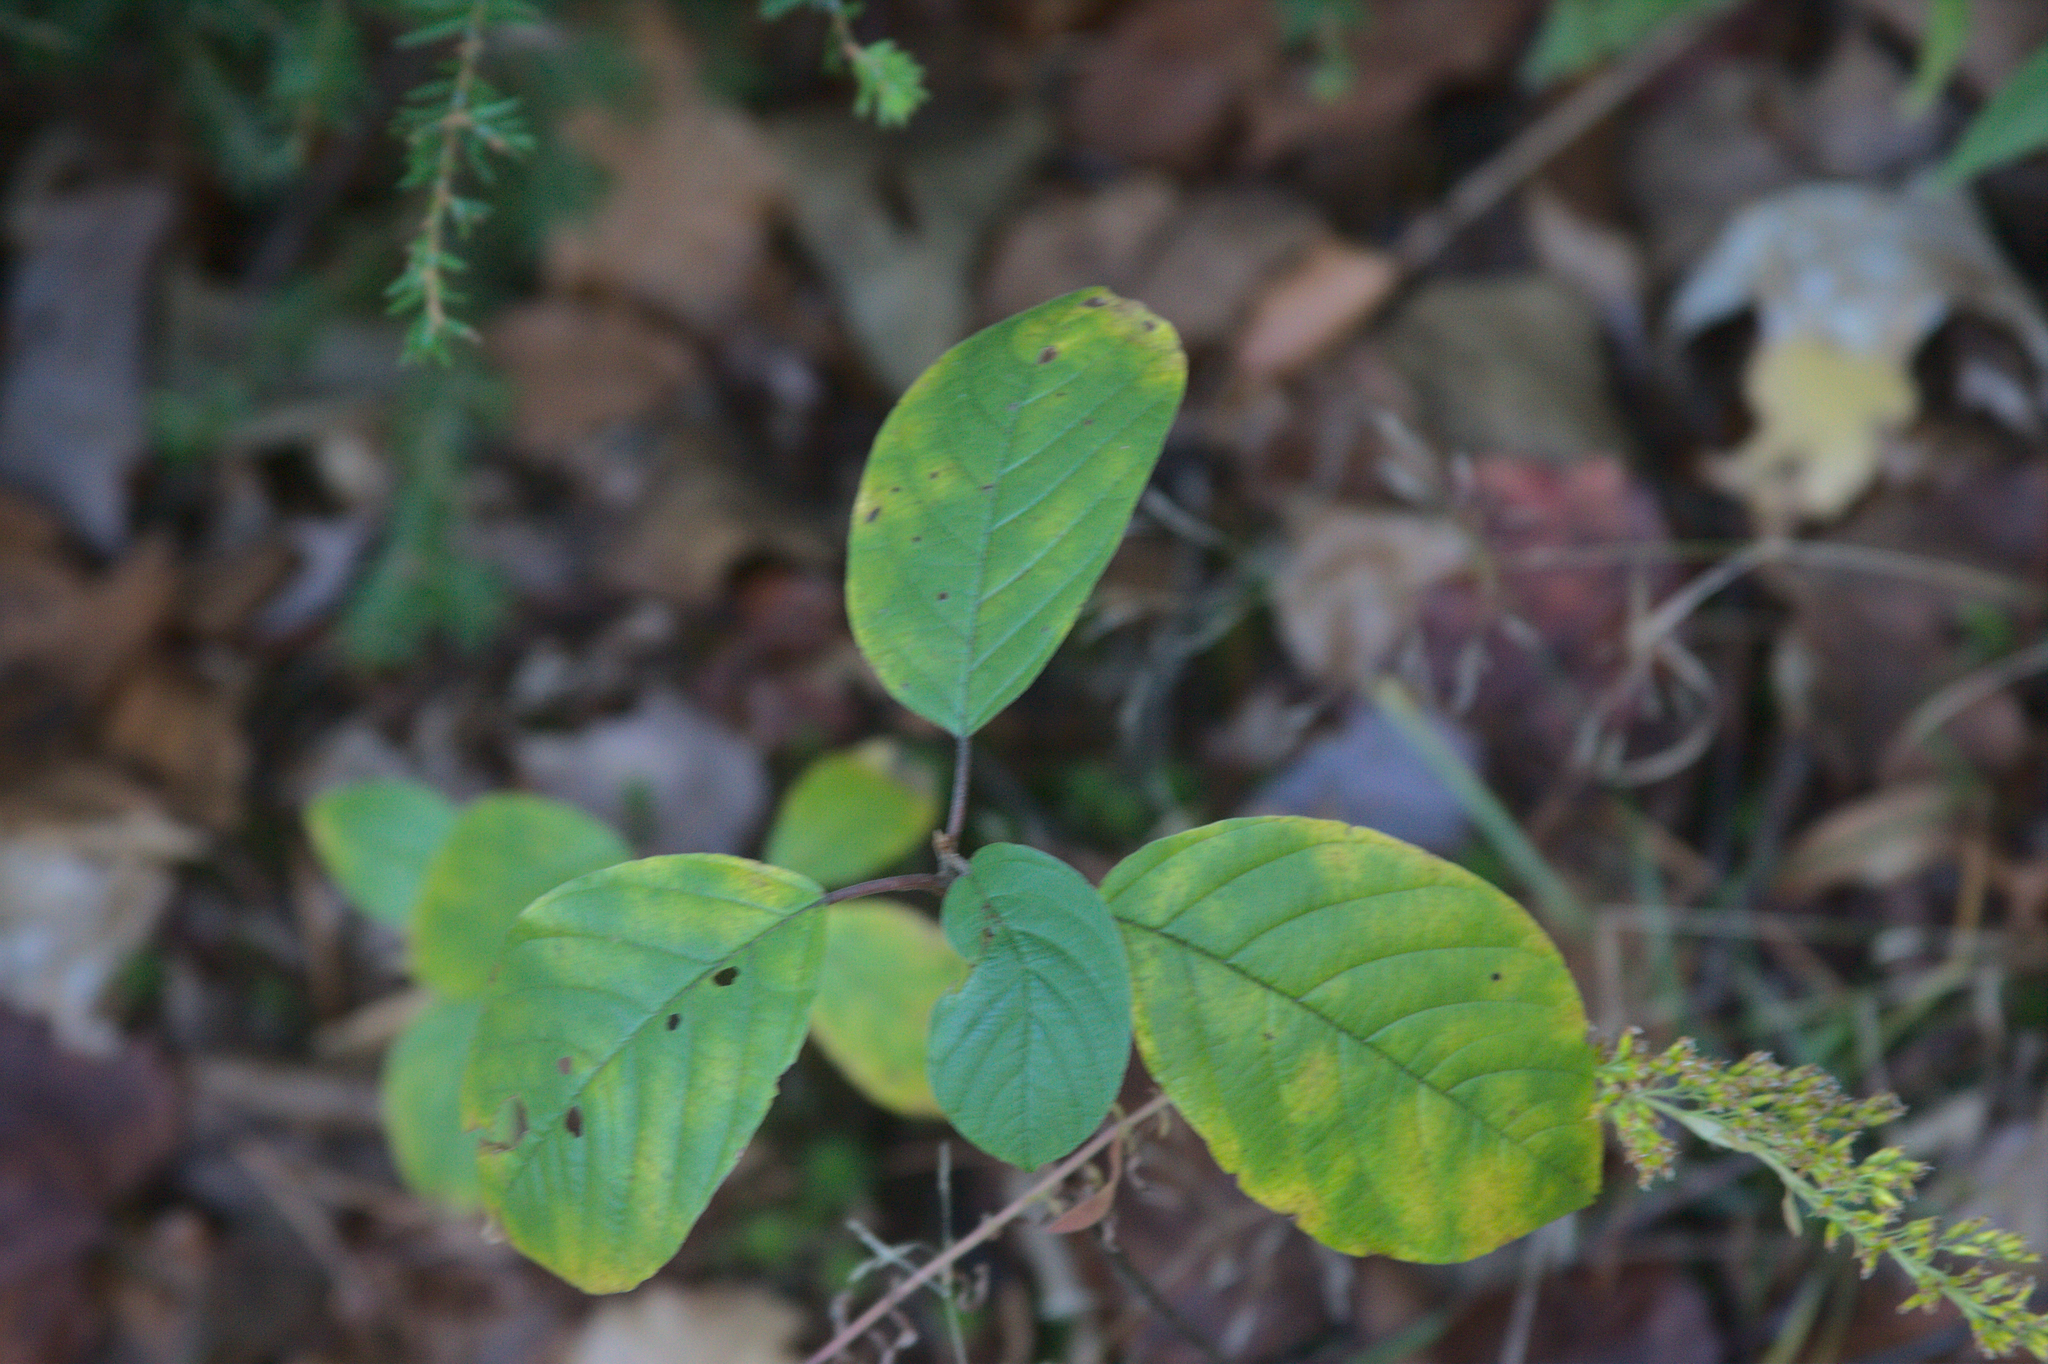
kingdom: Plantae
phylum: Tracheophyta
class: Magnoliopsida
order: Rosales
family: Rhamnaceae
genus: Frangula
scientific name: Frangula alnus
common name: Alder buckthorn
